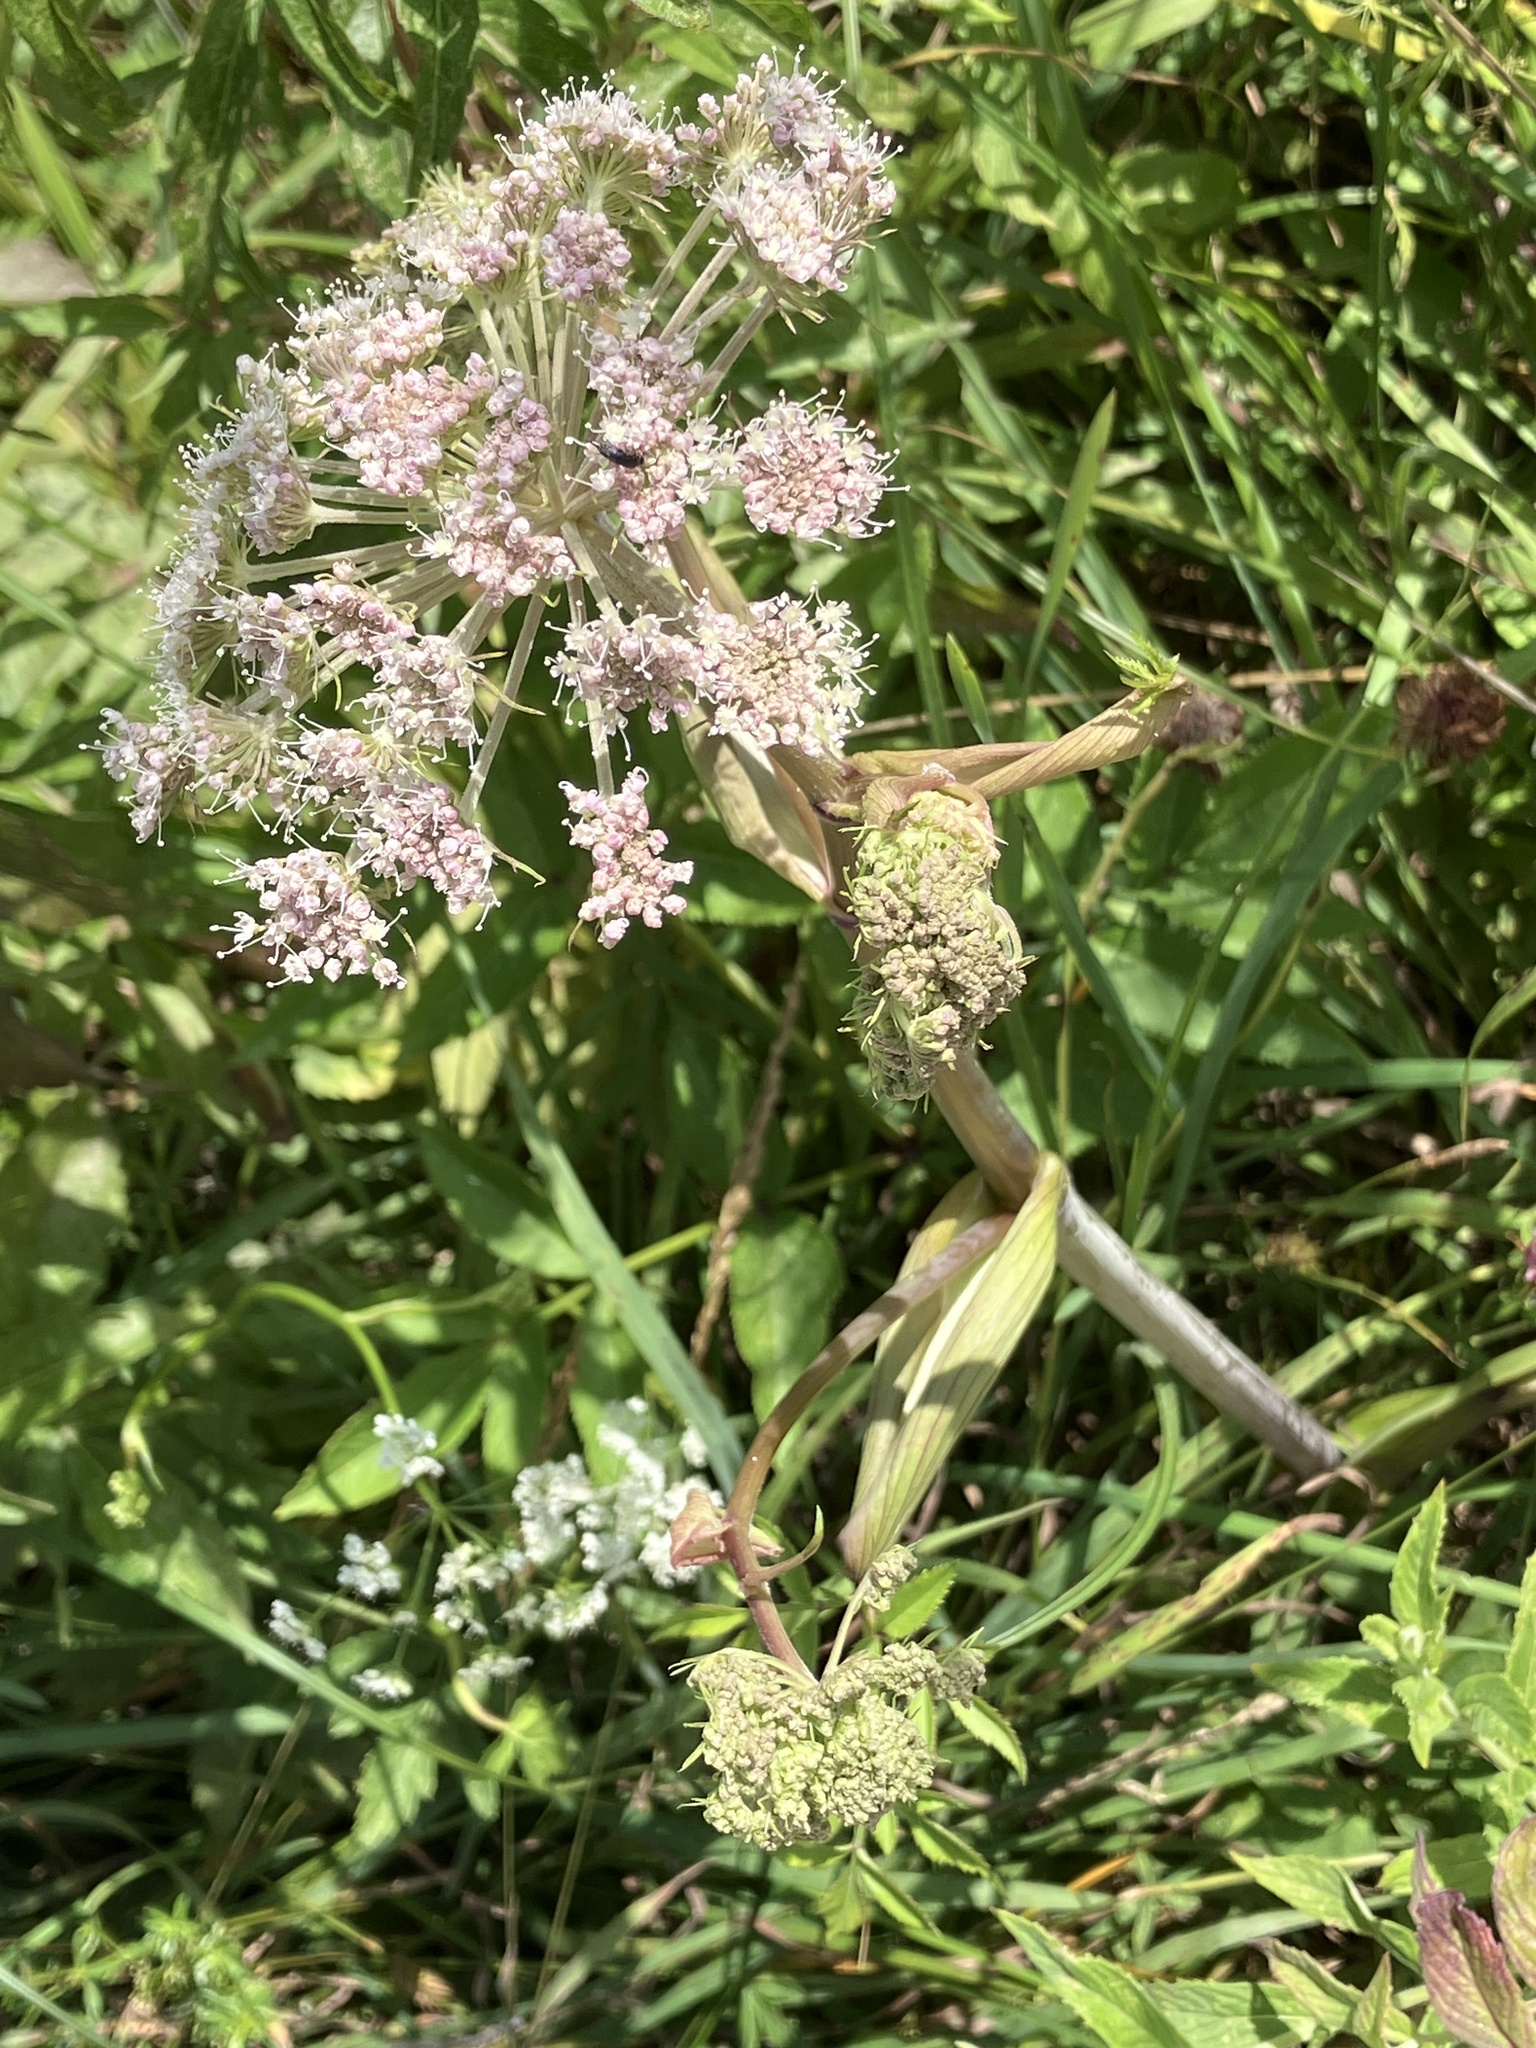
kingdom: Plantae
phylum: Tracheophyta
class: Magnoliopsida
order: Apiales
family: Apiaceae
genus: Angelica
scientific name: Angelica sylvestris
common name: Wild angelica
